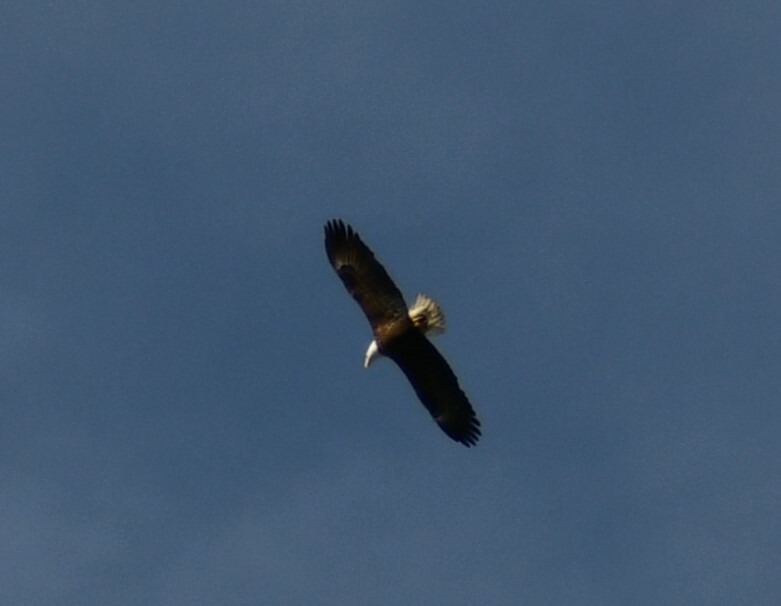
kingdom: Animalia
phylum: Chordata
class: Aves
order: Accipitriformes
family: Accipitridae
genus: Haliaeetus
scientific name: Haliaeetus leucocephalus
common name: Bald eagle
